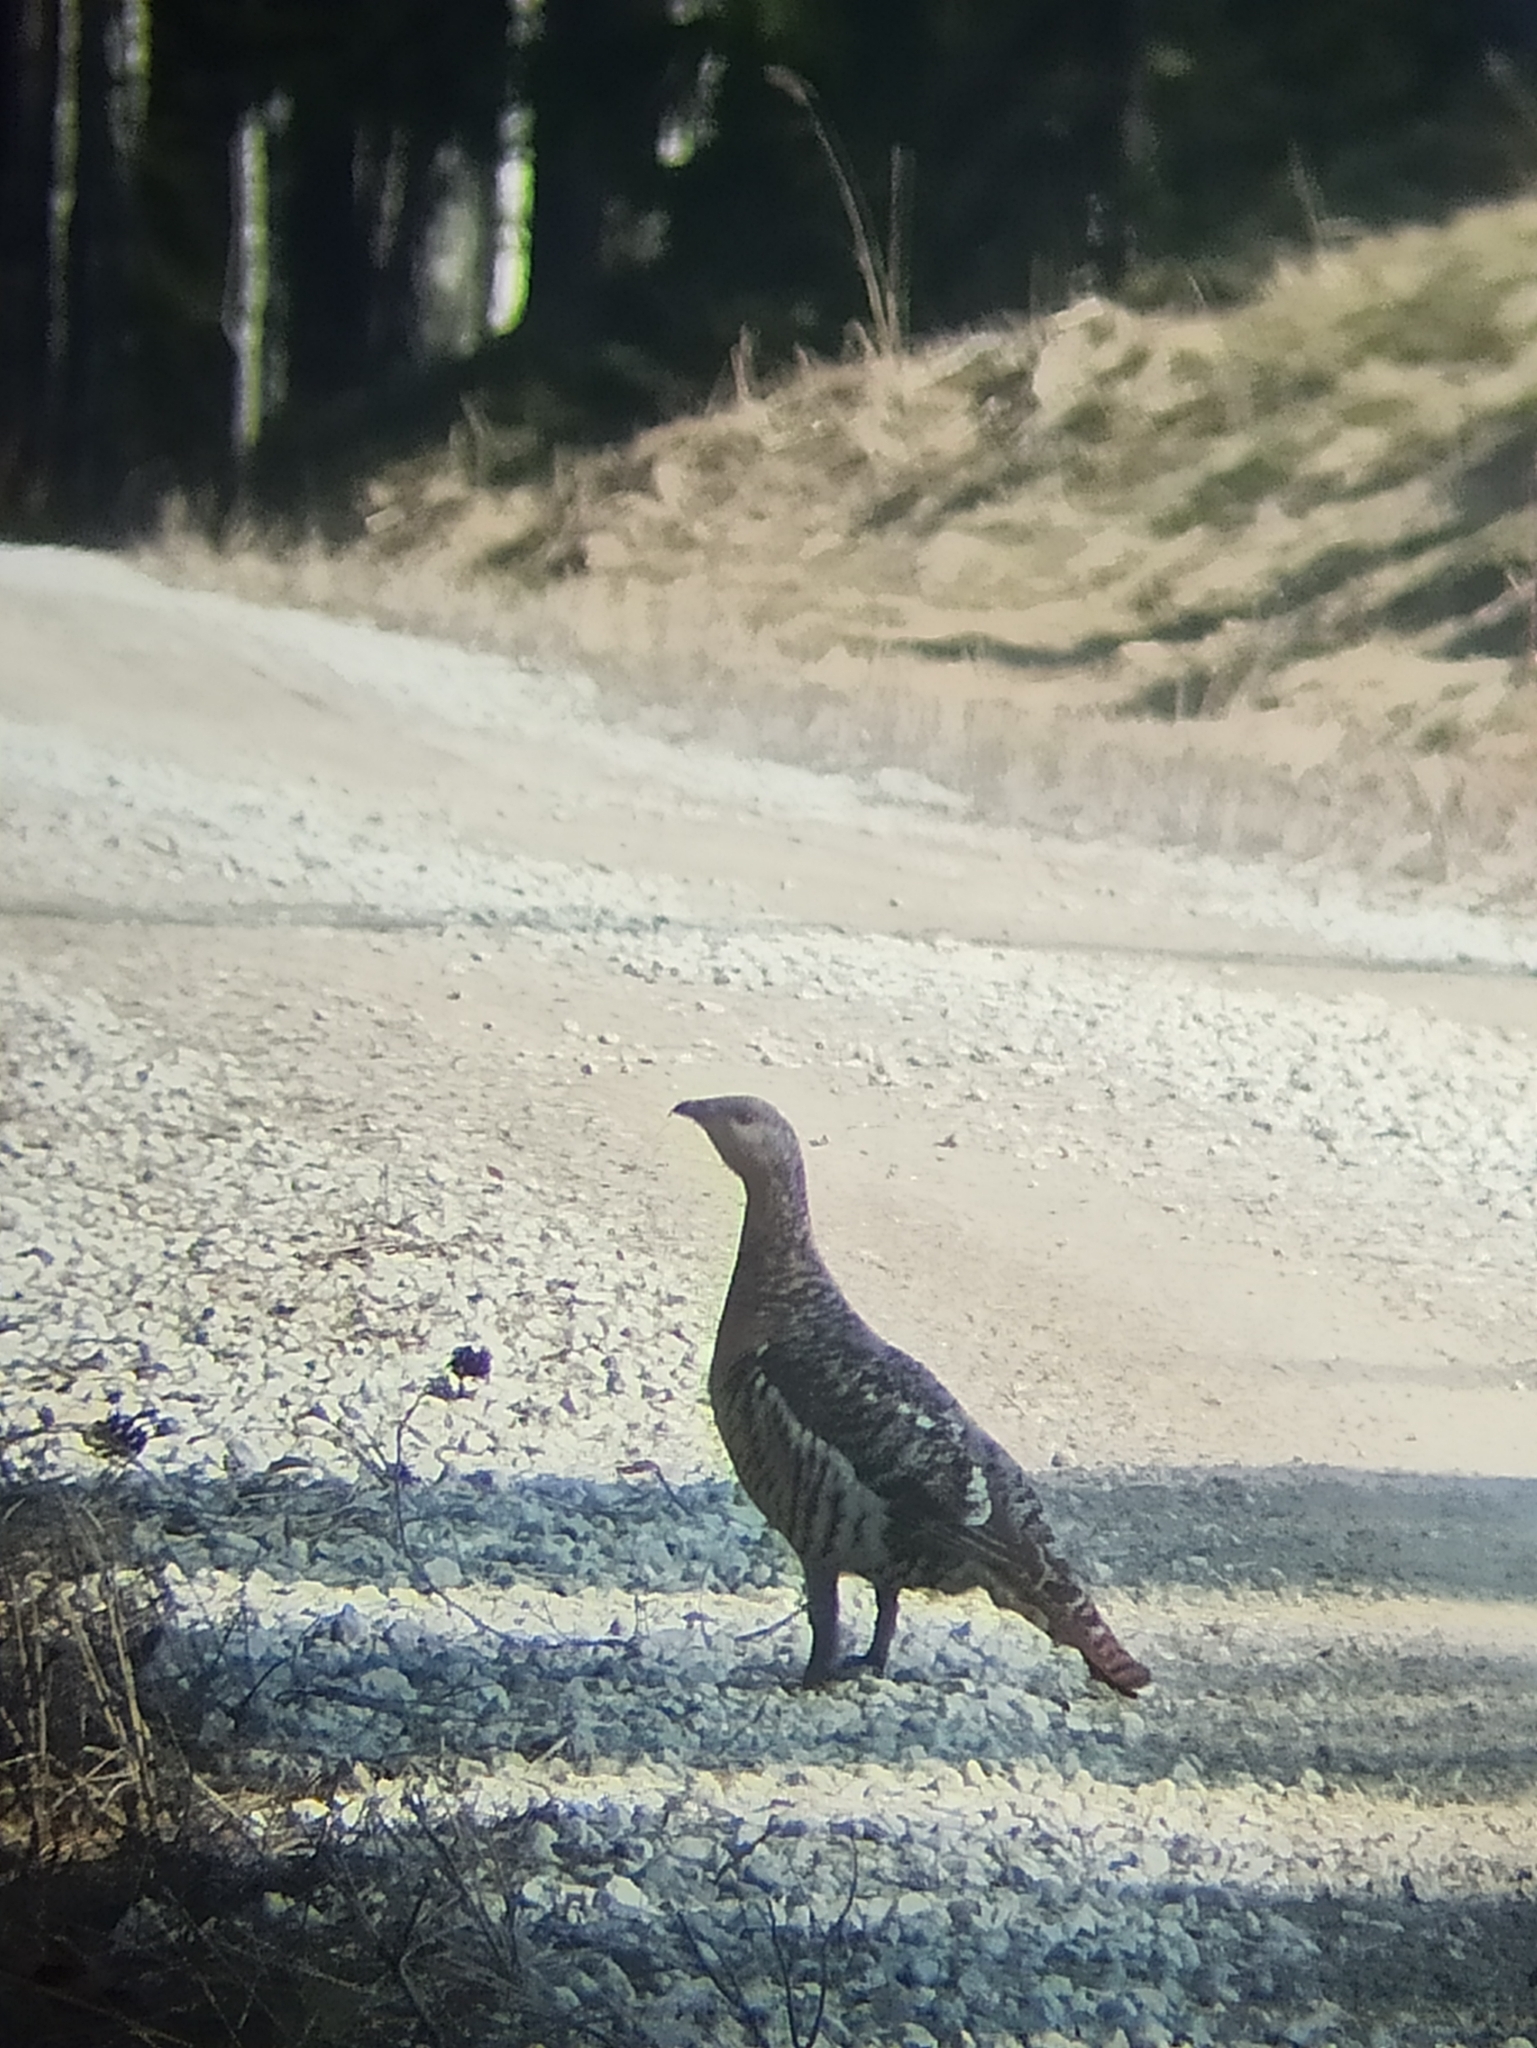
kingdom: Animalia
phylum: Chordata
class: Aves
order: Galliformes
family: Phasianidae
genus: Tetrao
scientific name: Tetrao urogallus
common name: Western capercaillie
